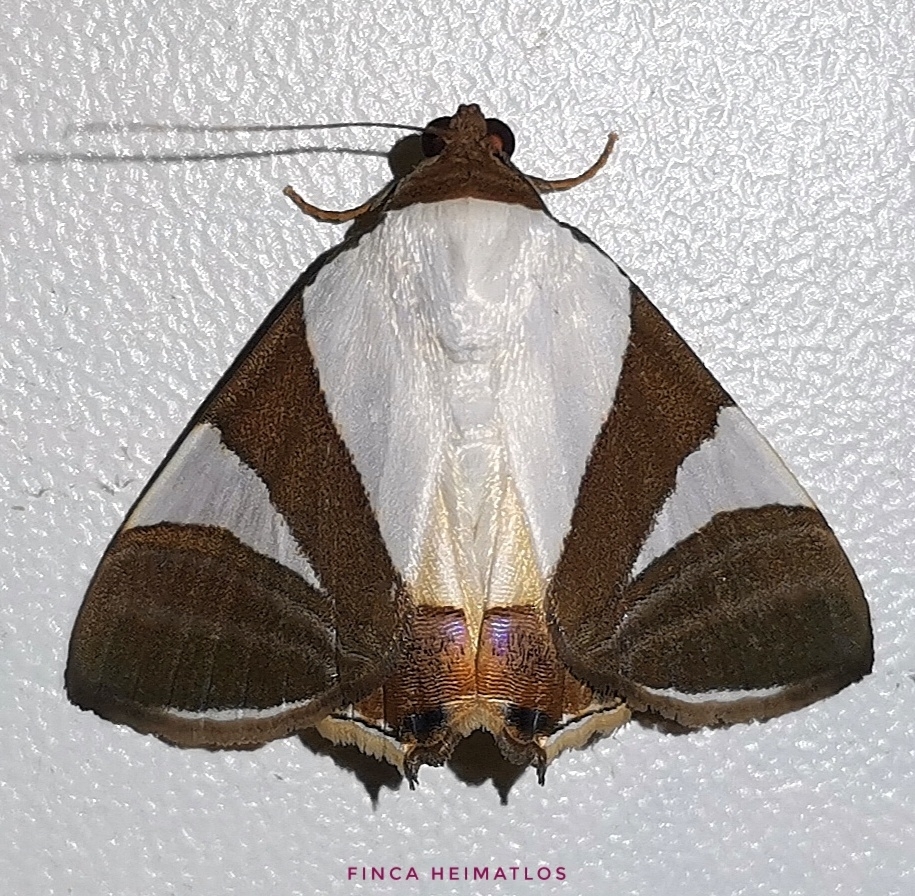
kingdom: Animalia
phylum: Arthropoda
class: Insecta
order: Lepidoptera
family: Erebidae
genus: Eulepidotis
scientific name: Eulepidotis argyritis
